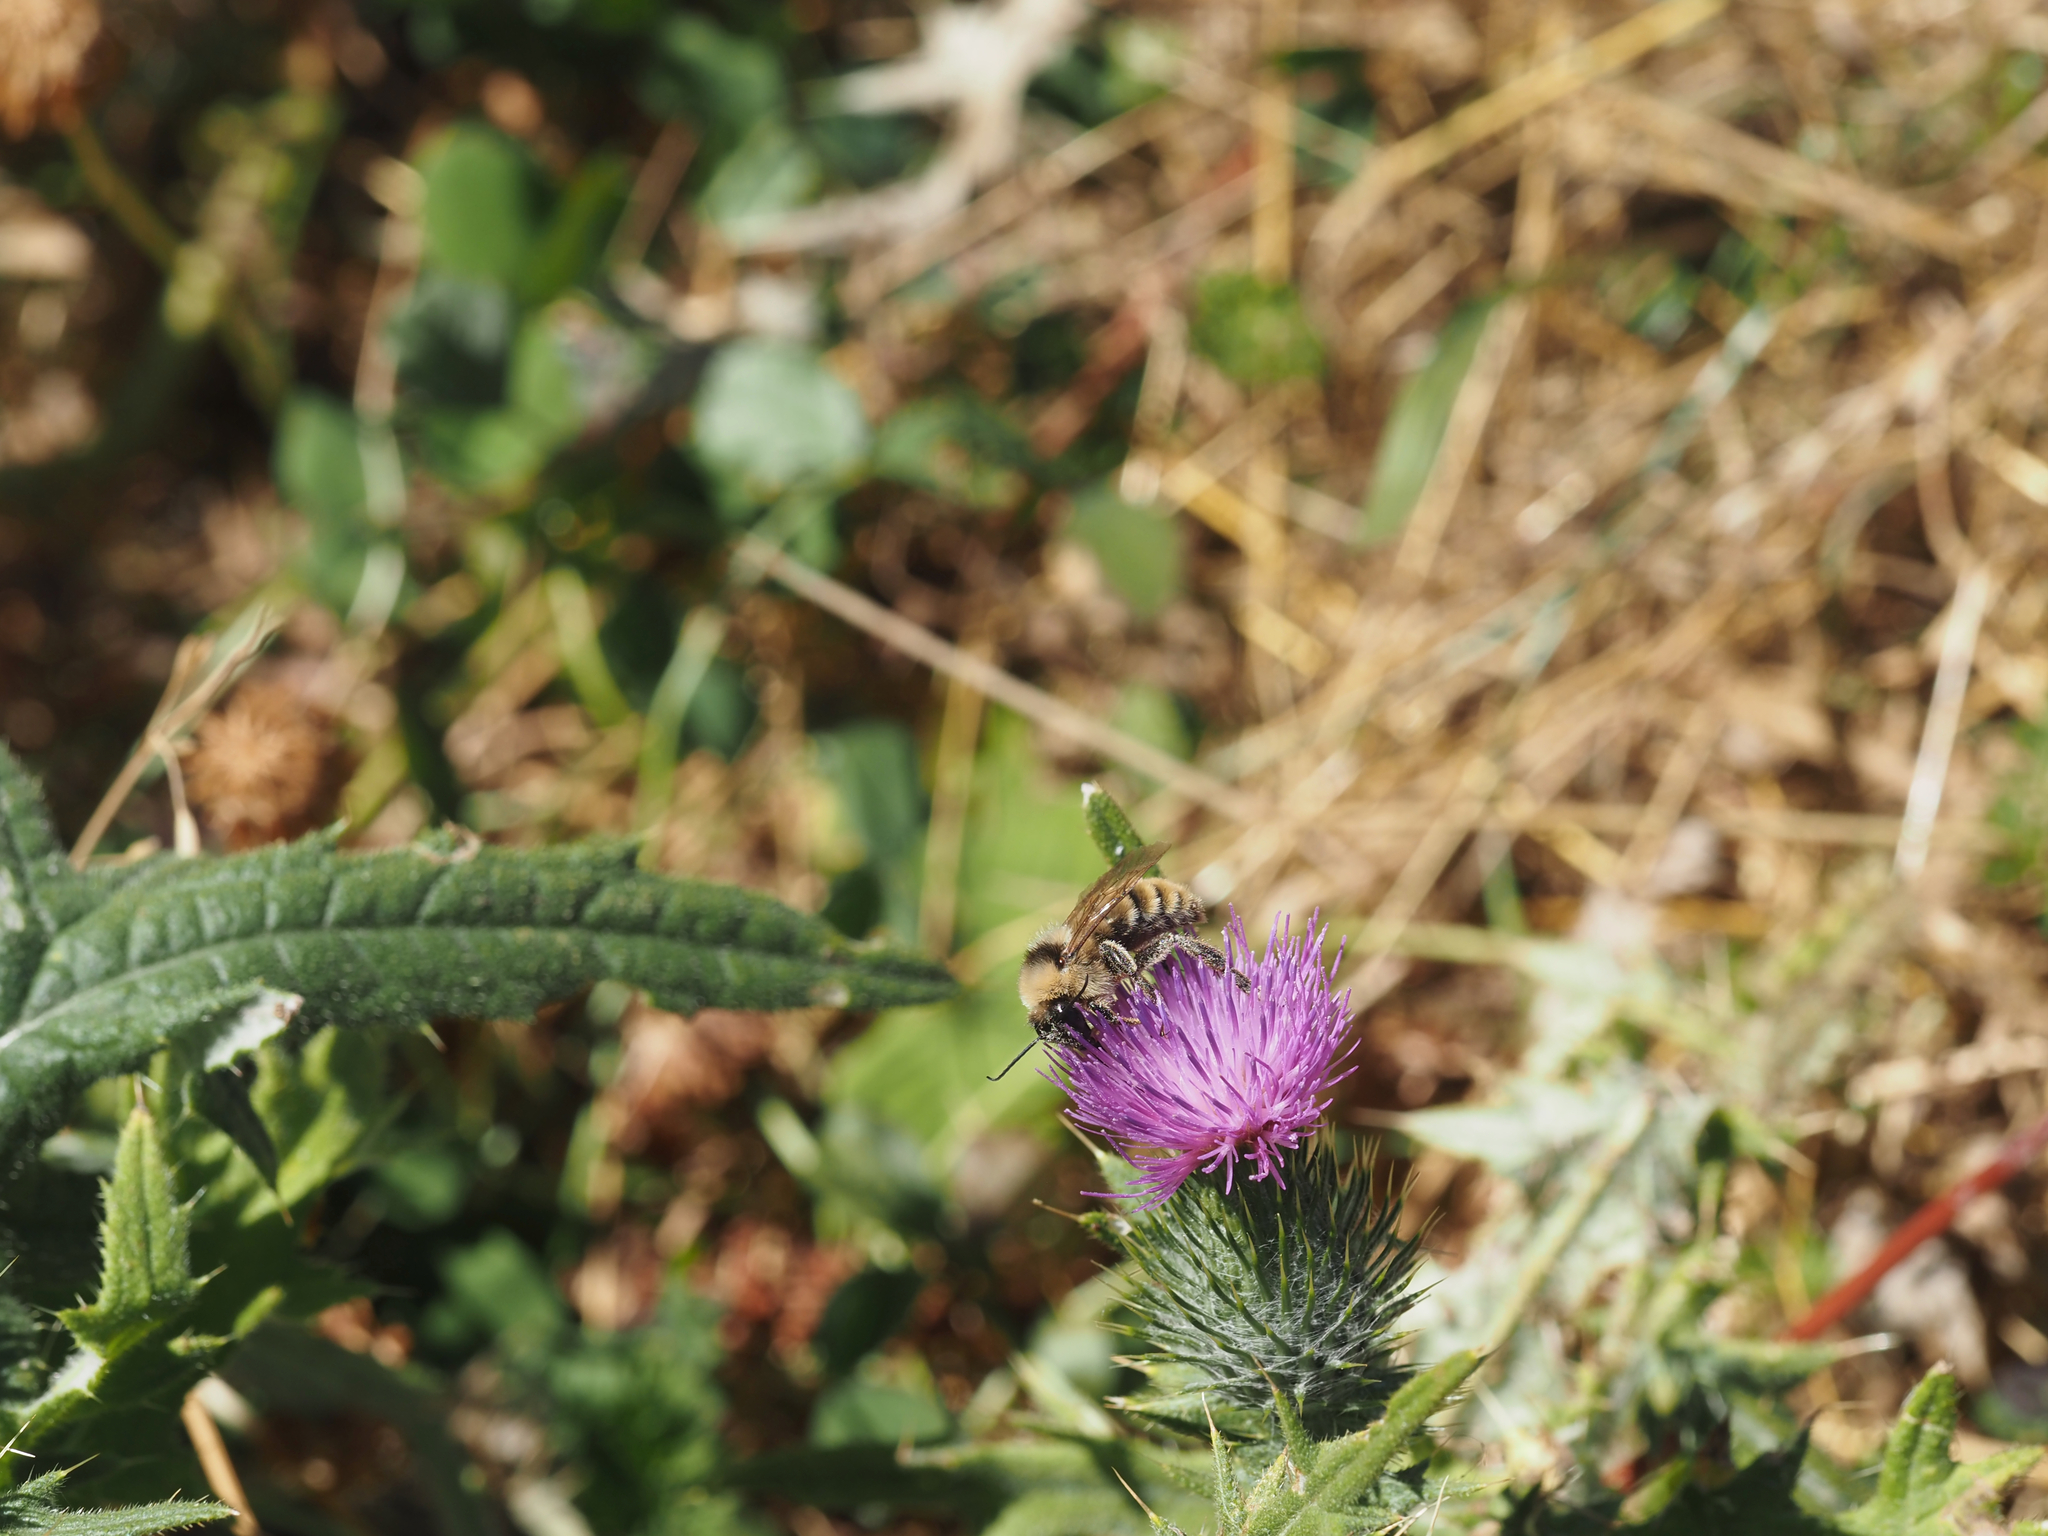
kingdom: Animalia
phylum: Arthropoda
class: Insecta
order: Hymenoptera
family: Apidae
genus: Bombus
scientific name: Bombus californicus
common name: California bumble bee
